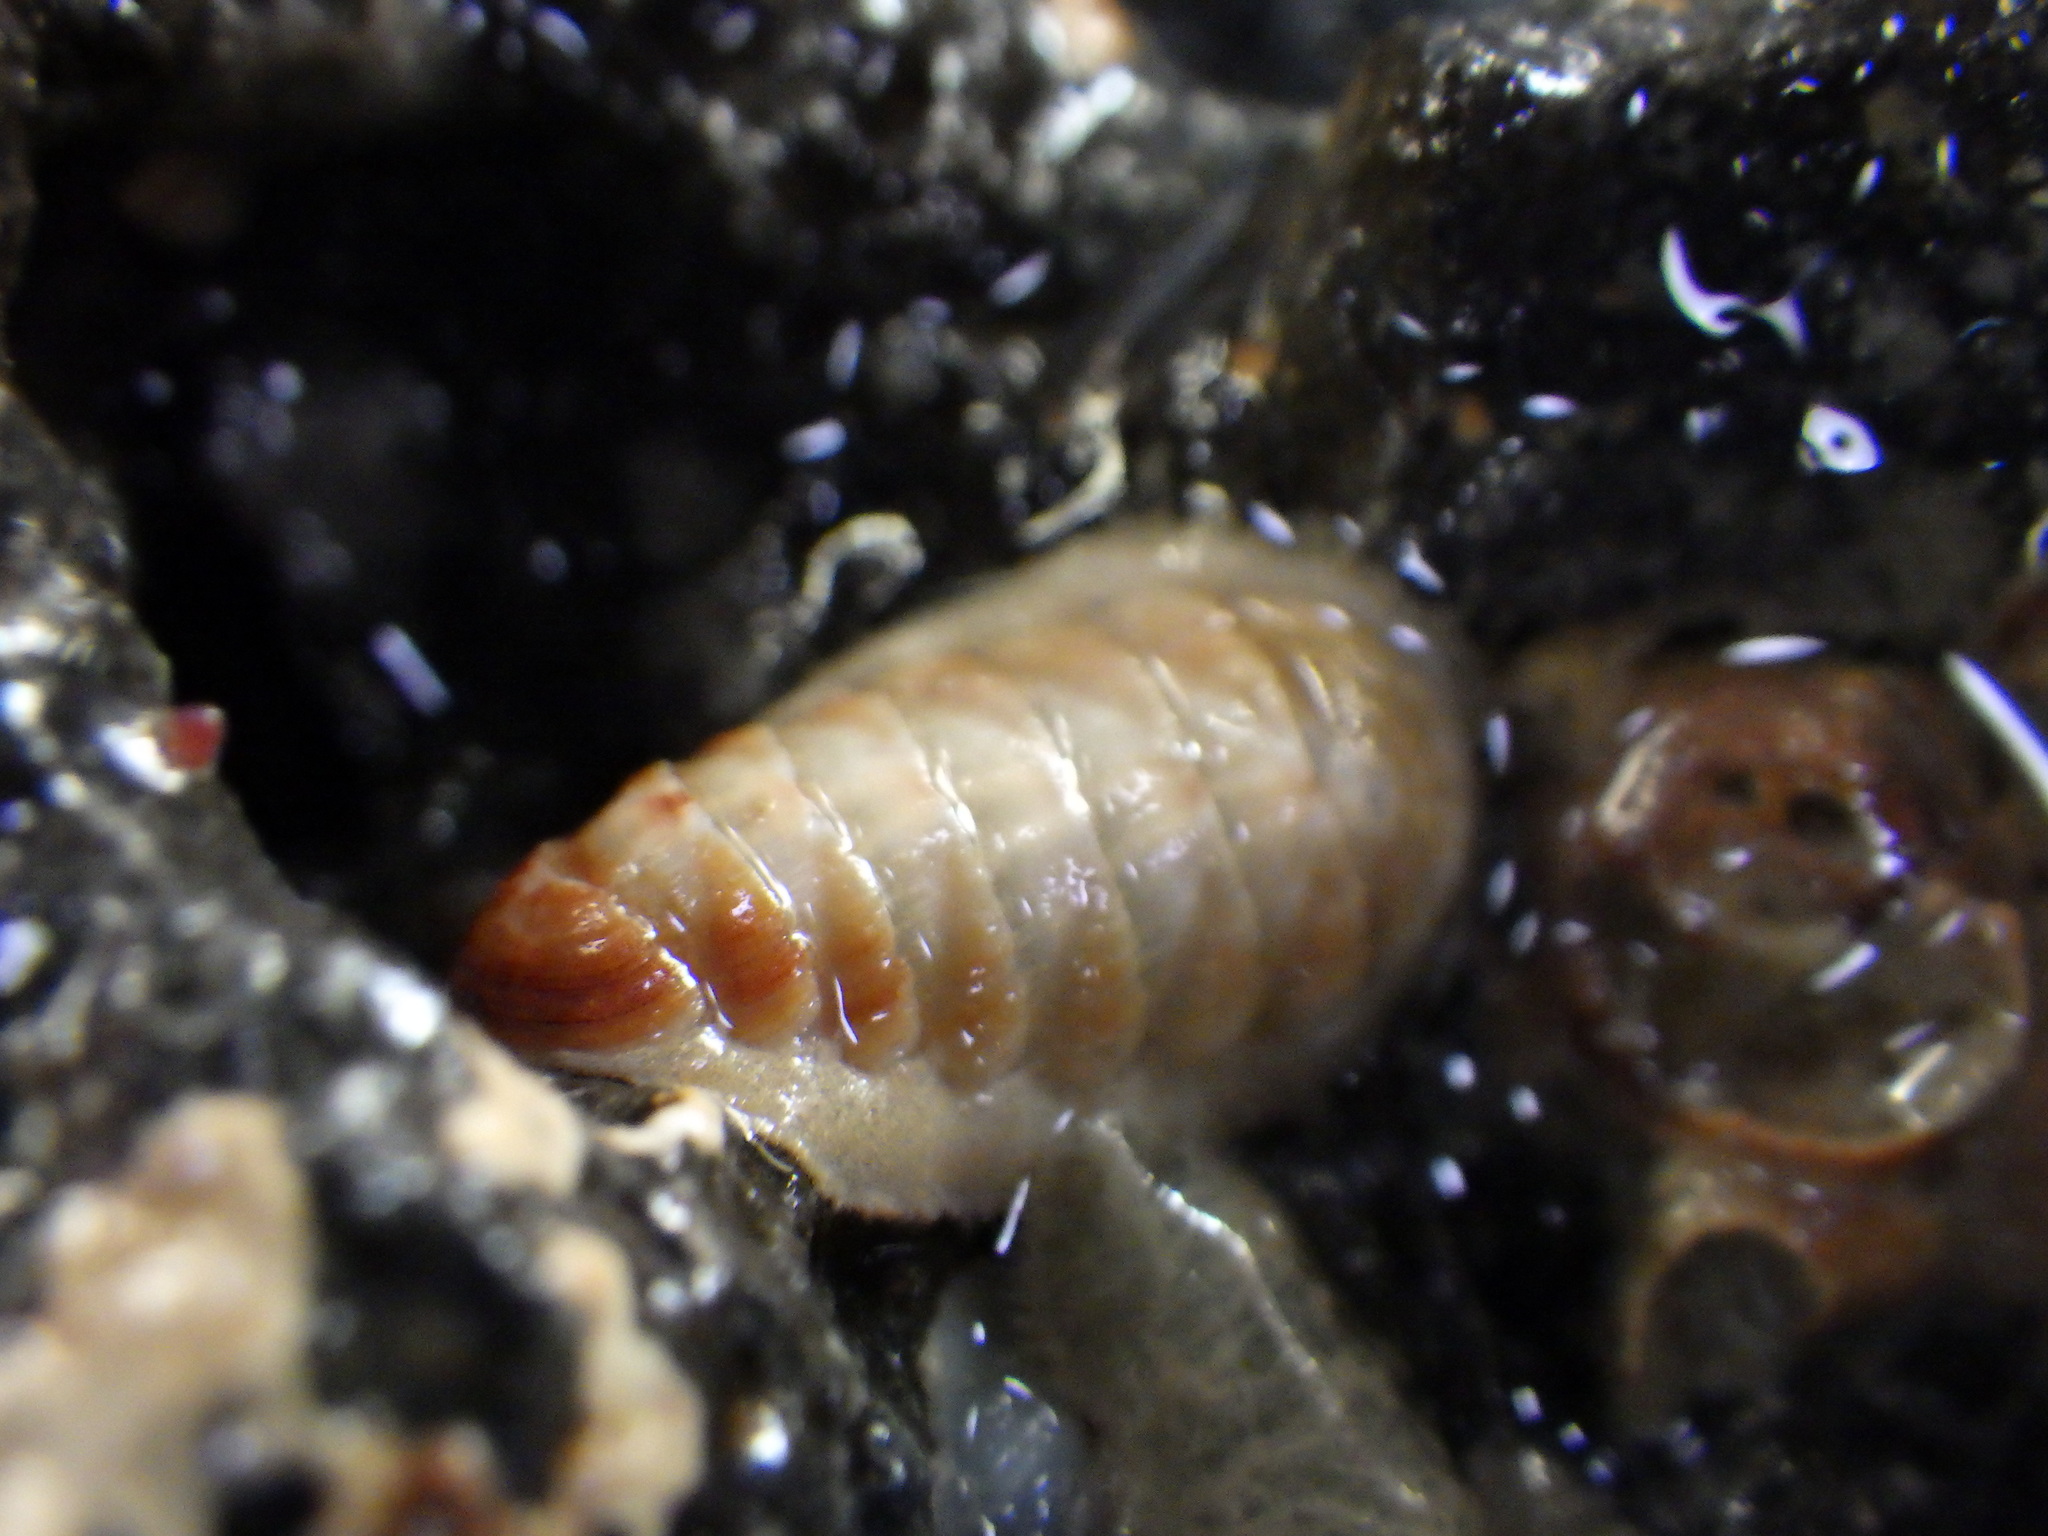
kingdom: Animalia
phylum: Mollusca
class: Polyplacophora
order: Lepidopleurida
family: Leptochitonidae
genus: Leptochiton
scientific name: Leptochiton inquinatus
